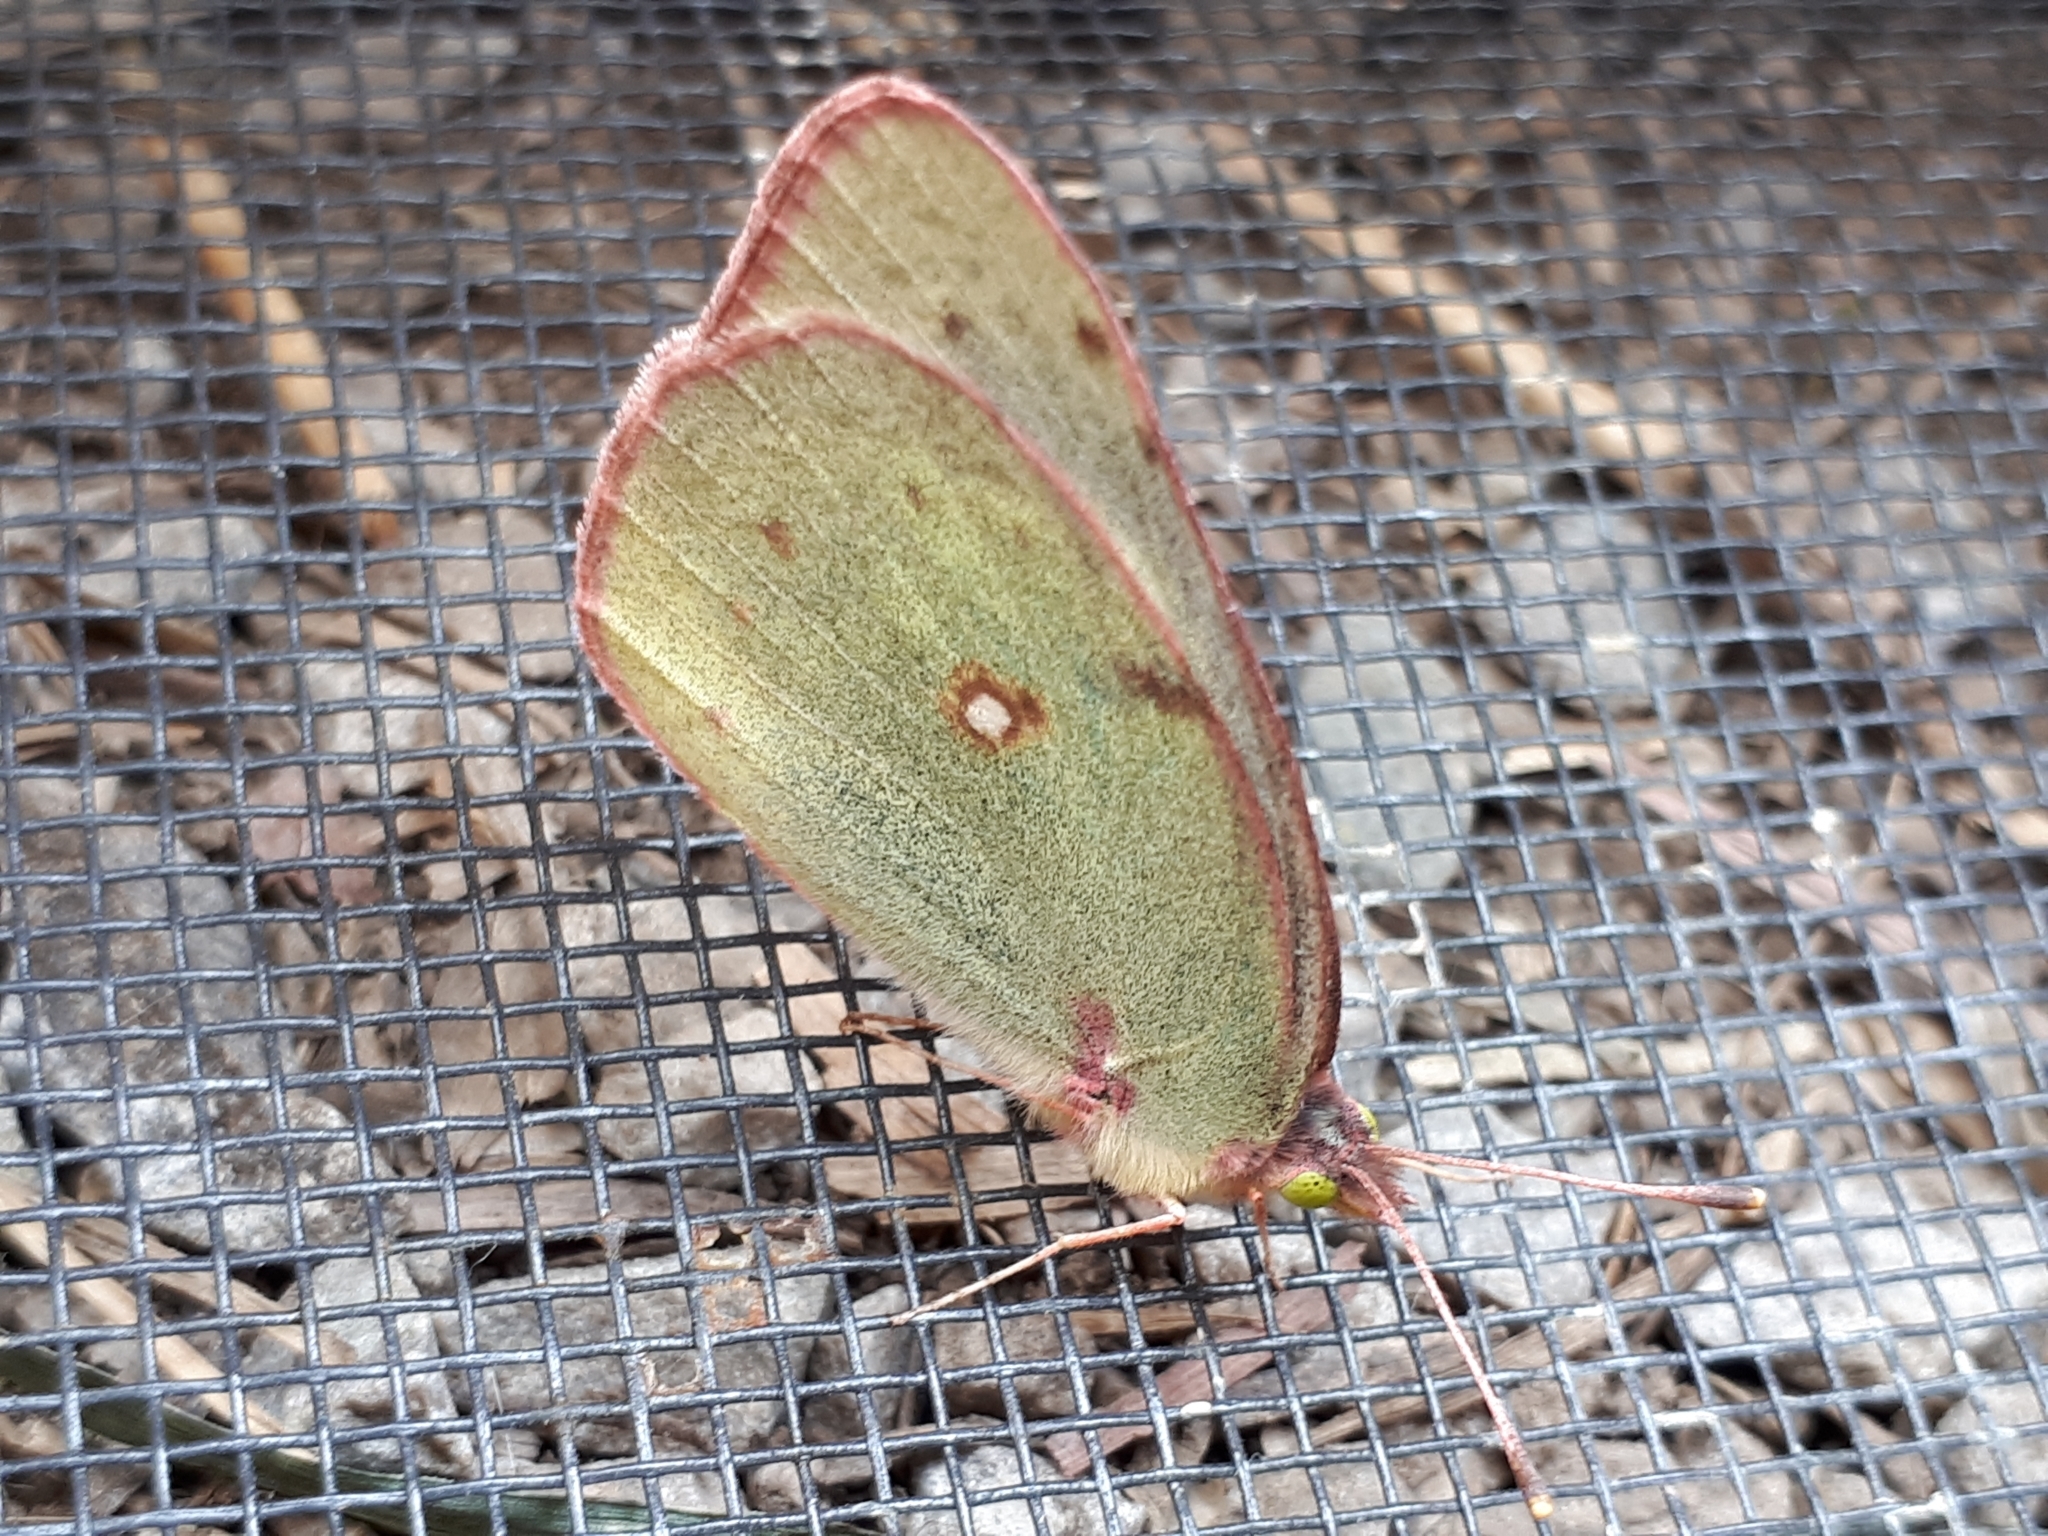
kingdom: Animalia
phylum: Arthropoda
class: Insecta
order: Lepidoptera
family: Pieridae
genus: Colias
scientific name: Colias philodice
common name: Clouded sulphur
